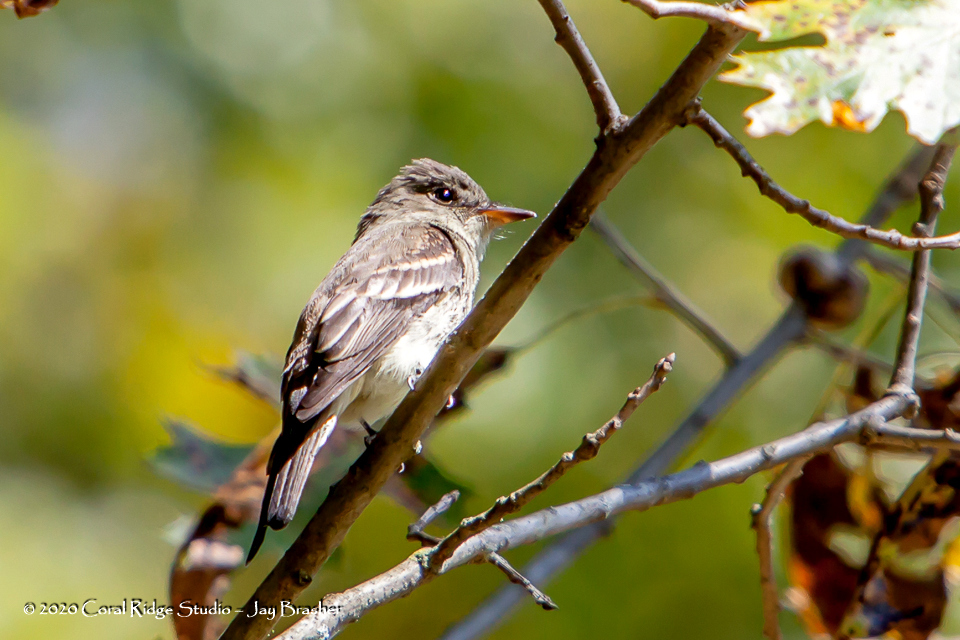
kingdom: Animalia
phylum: Chordata
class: Aves
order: Passeriformes
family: Tyrannidae
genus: Contopus
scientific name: Contopus virens
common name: Eastern wood-pewee
